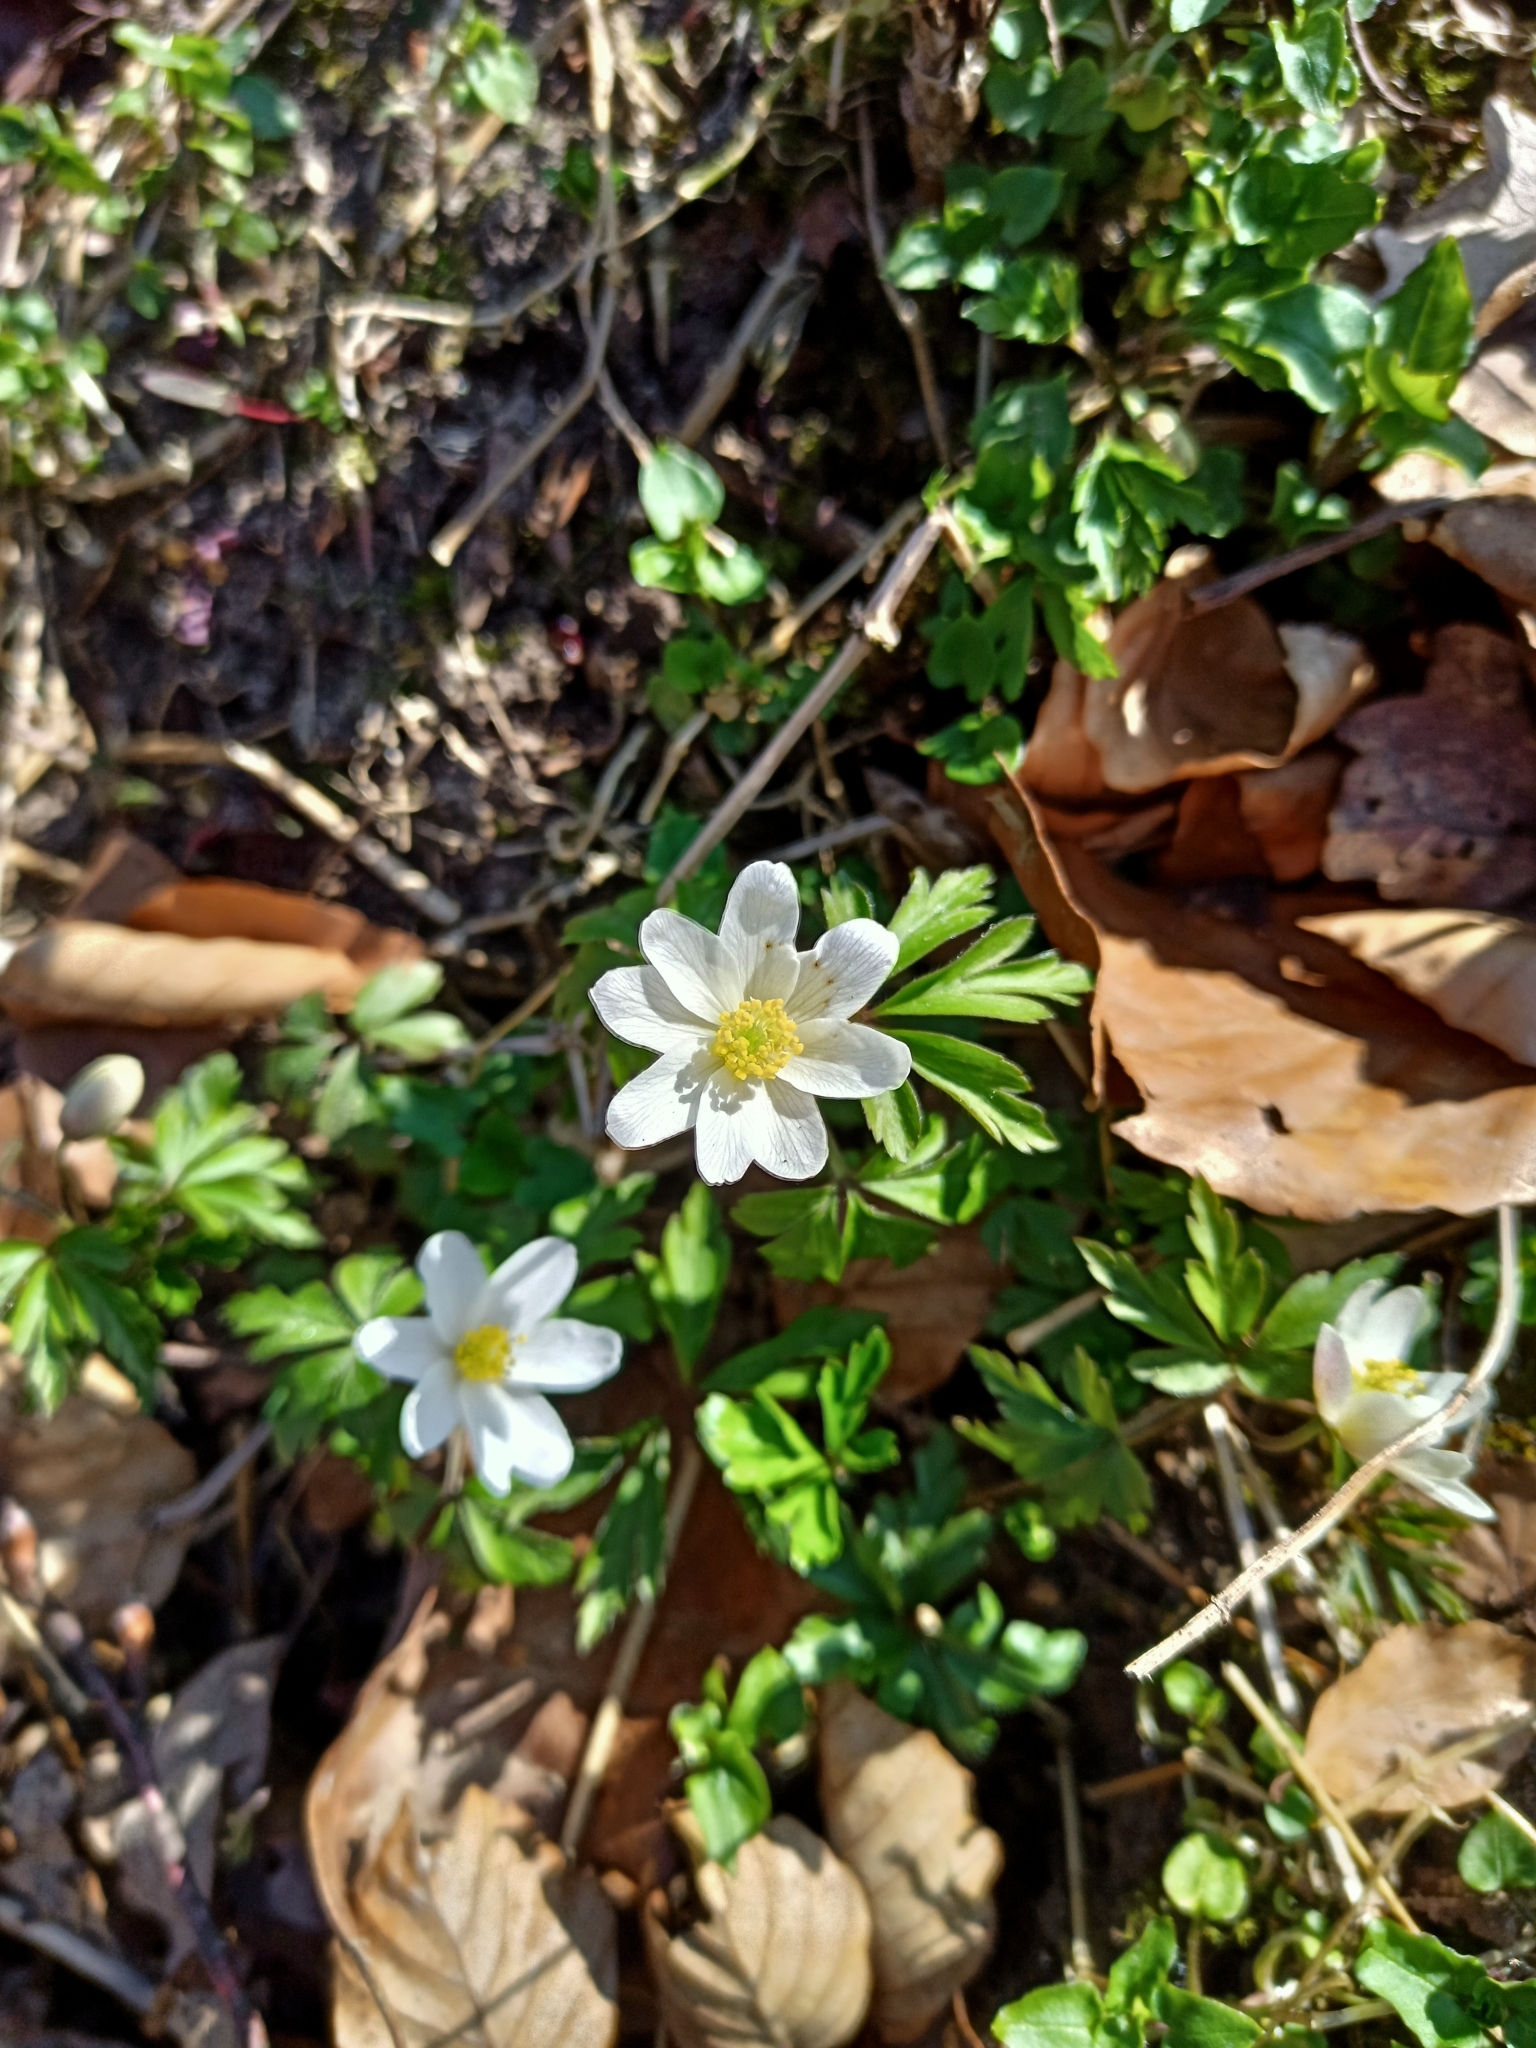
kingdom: Plantae
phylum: Tracheophyta
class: Magnoliopsida
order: Ranunculales
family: Ranunculaceae
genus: Anemone
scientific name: Anemone nemorosa
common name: Wood anemone
